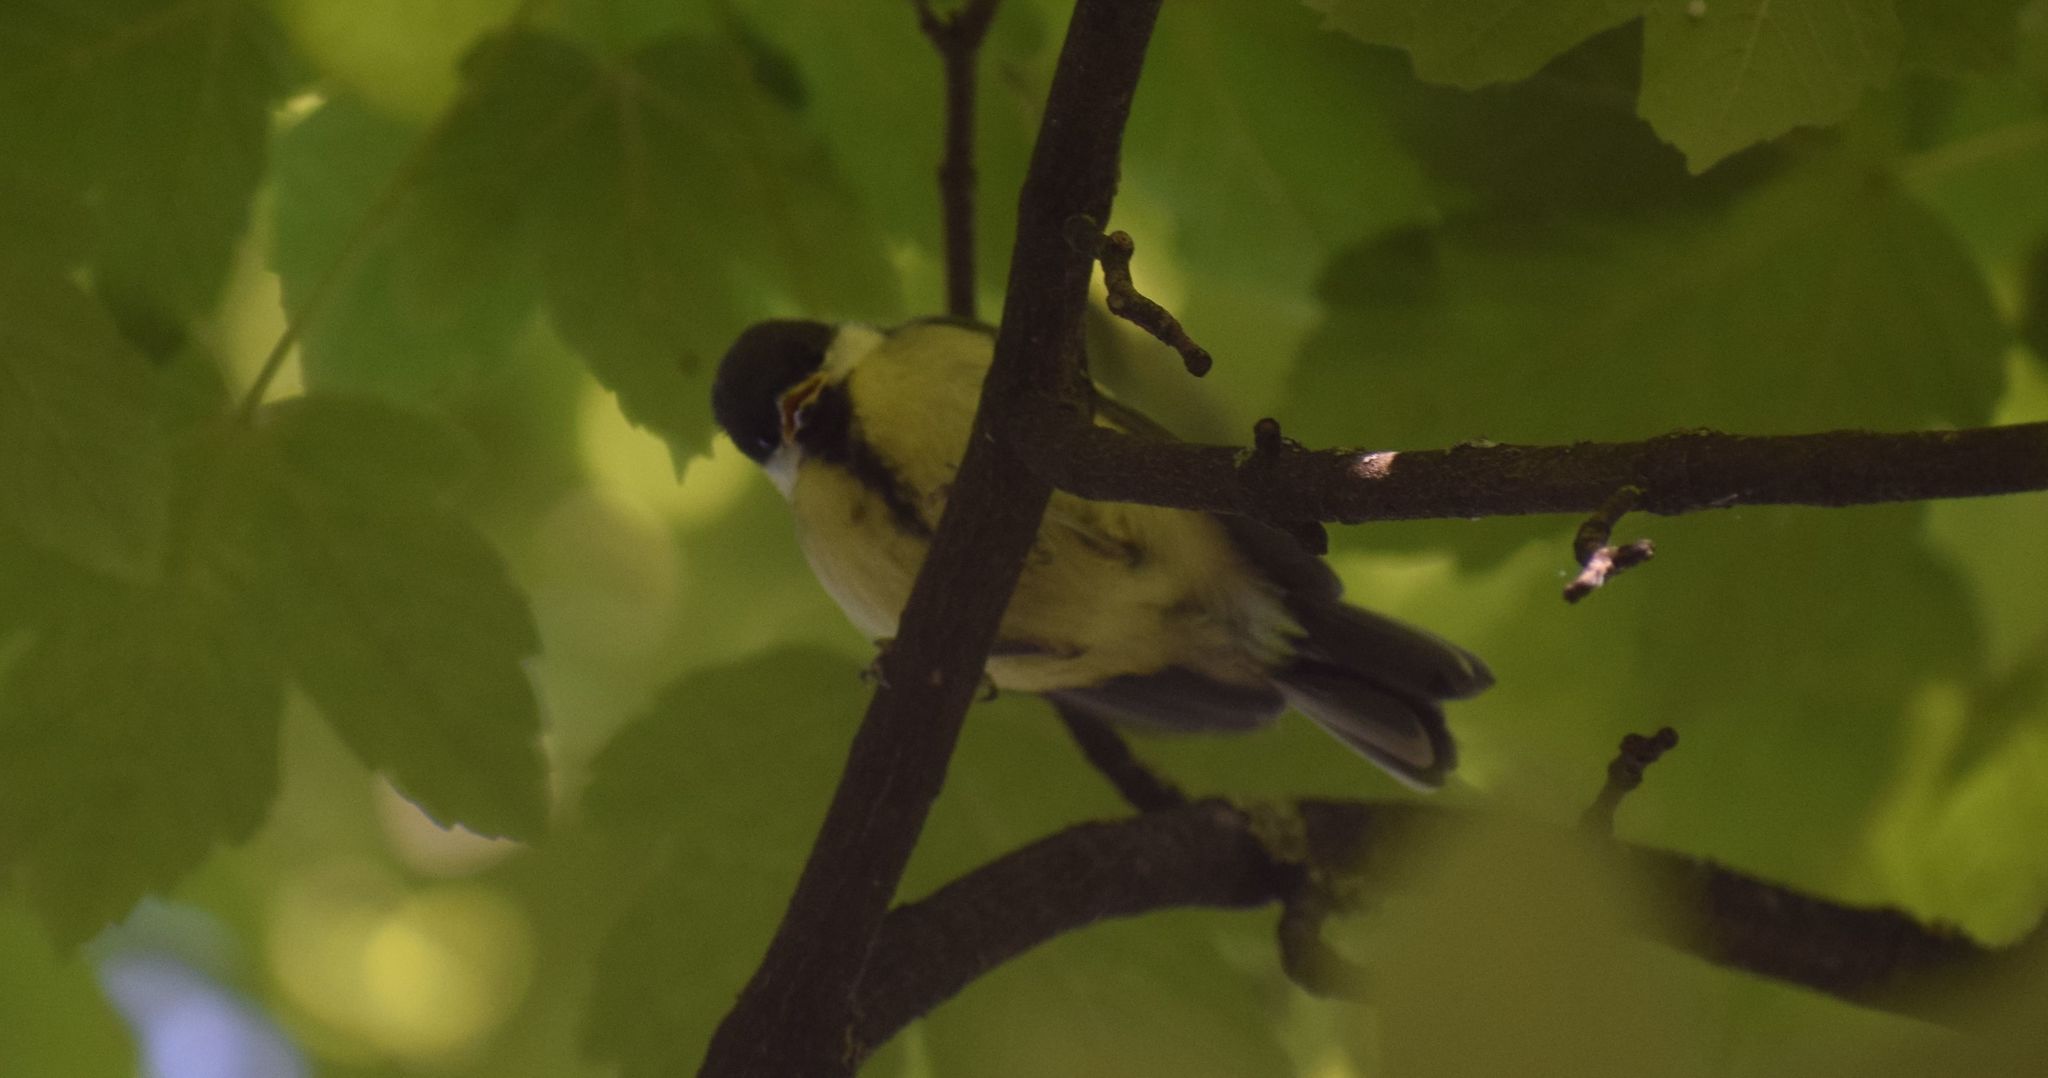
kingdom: Animalia
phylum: Chordata
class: Aves
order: Passeriformes
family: Paridae
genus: Parus
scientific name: Parus major
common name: Great tit
